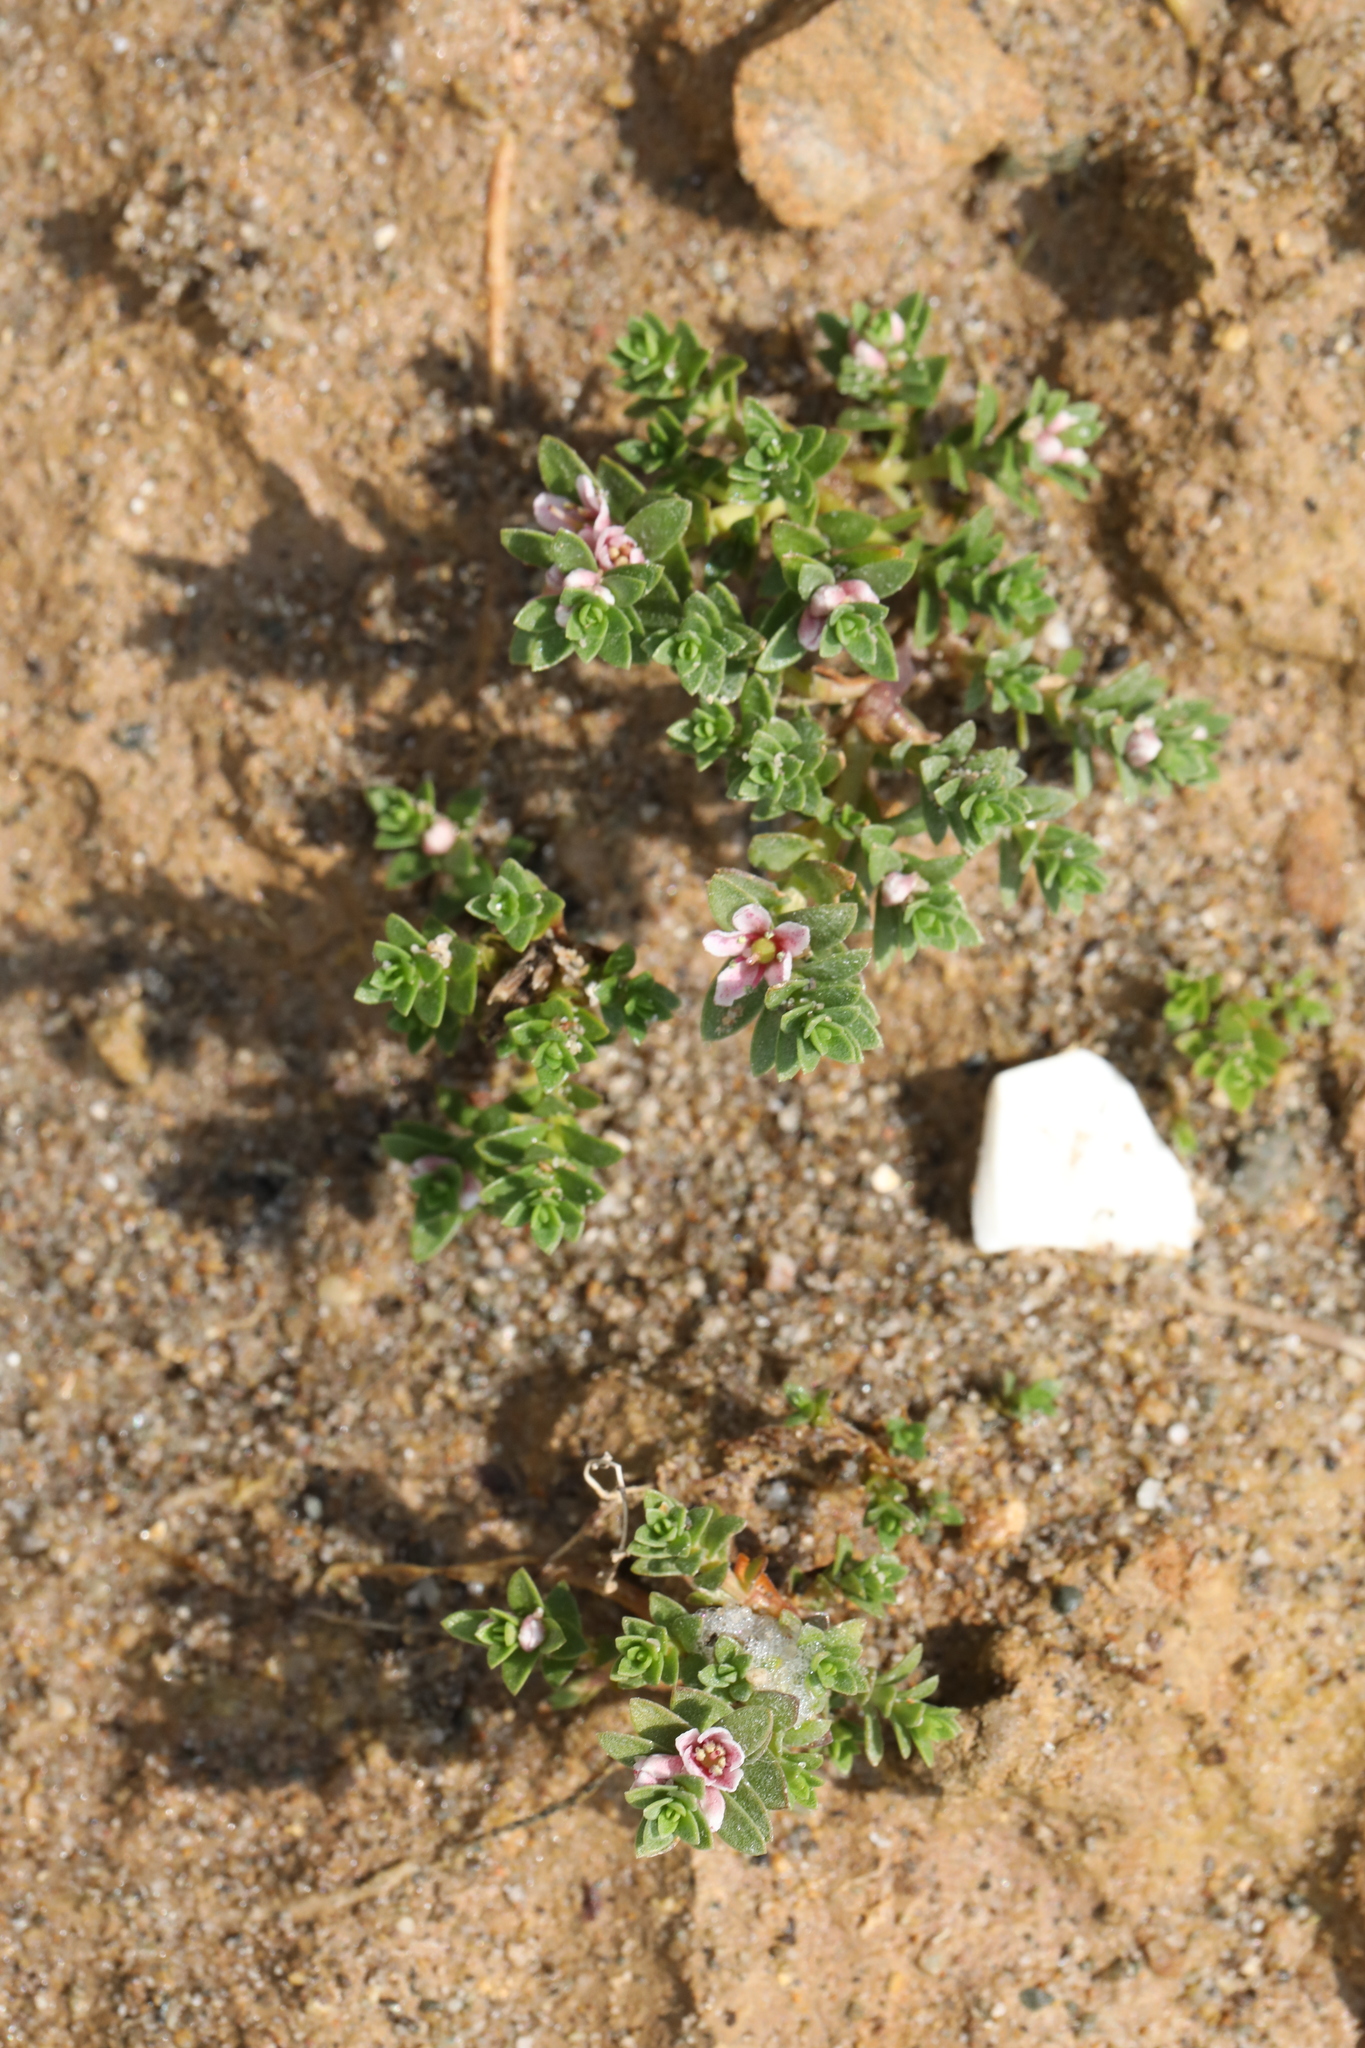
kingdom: Plantae
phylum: Tracheophyta
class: Magnoliopsida
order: Ericales
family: Primulaceae
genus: Lysimachia
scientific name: Lysimachia maritima
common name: Sea milkwort
